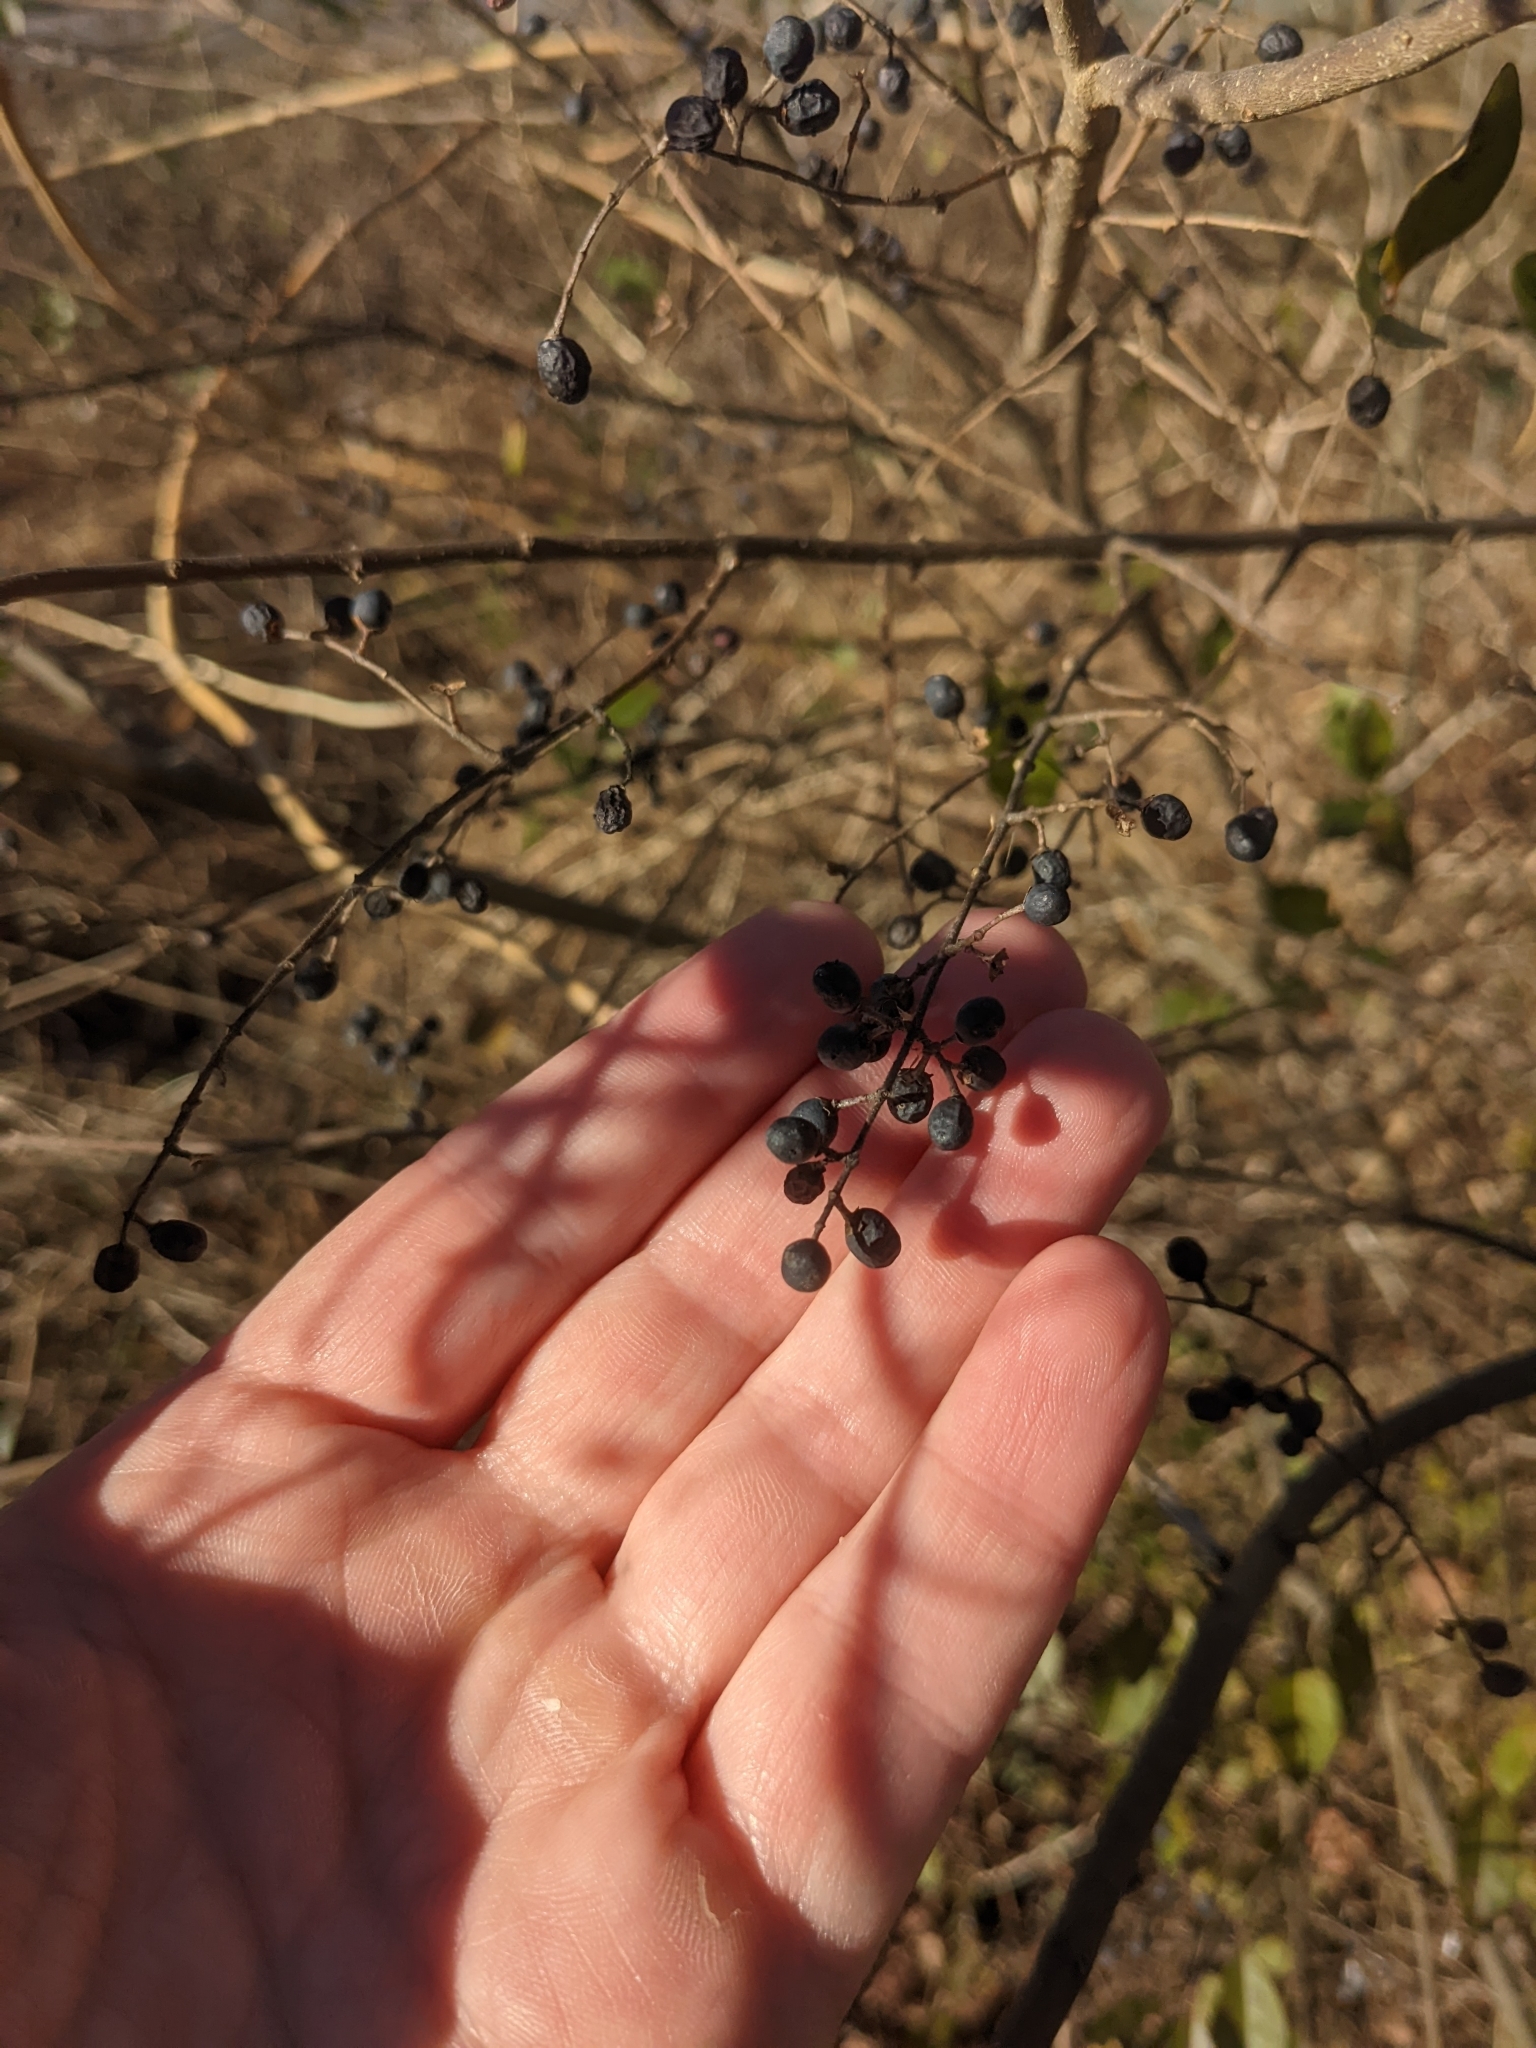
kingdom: Plantae
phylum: Tracheophyta
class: Magnoliopsida
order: Lamiales
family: Oleaceae
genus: Ligustrum
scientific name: Ligustrum sinense
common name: Chinese privet
